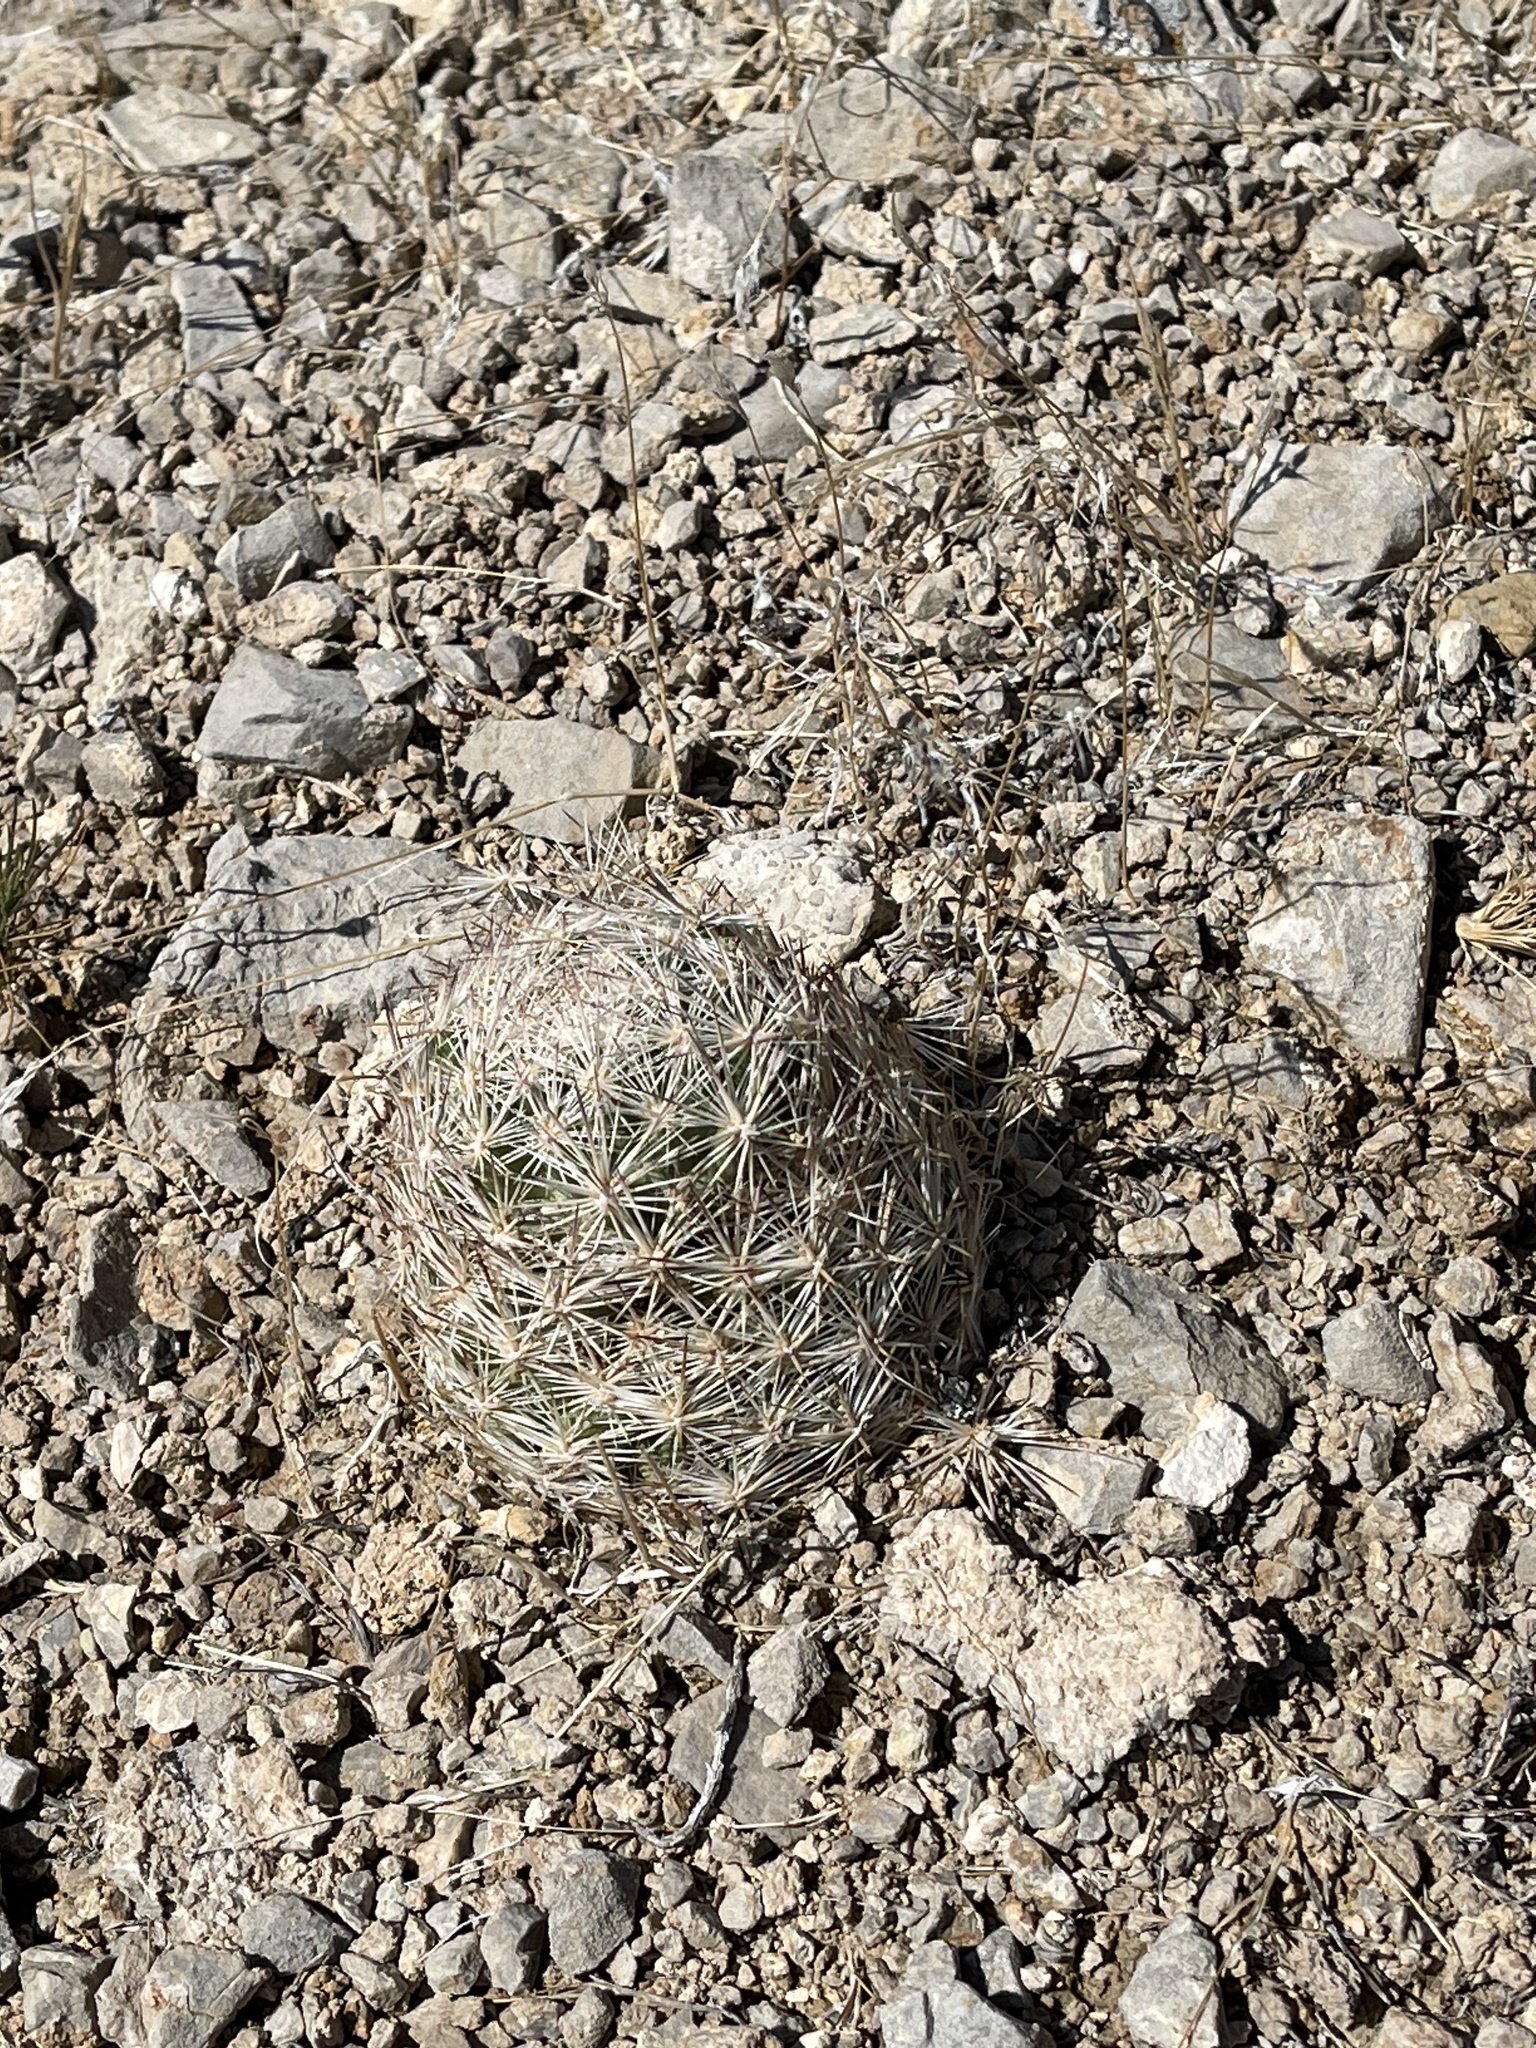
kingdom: Plantae
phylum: Tracheophyta
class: Magnoliopsida
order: Caryophyllales
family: Cactaceae
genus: Pelecyphora
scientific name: Pelecyphora dasyacantha
